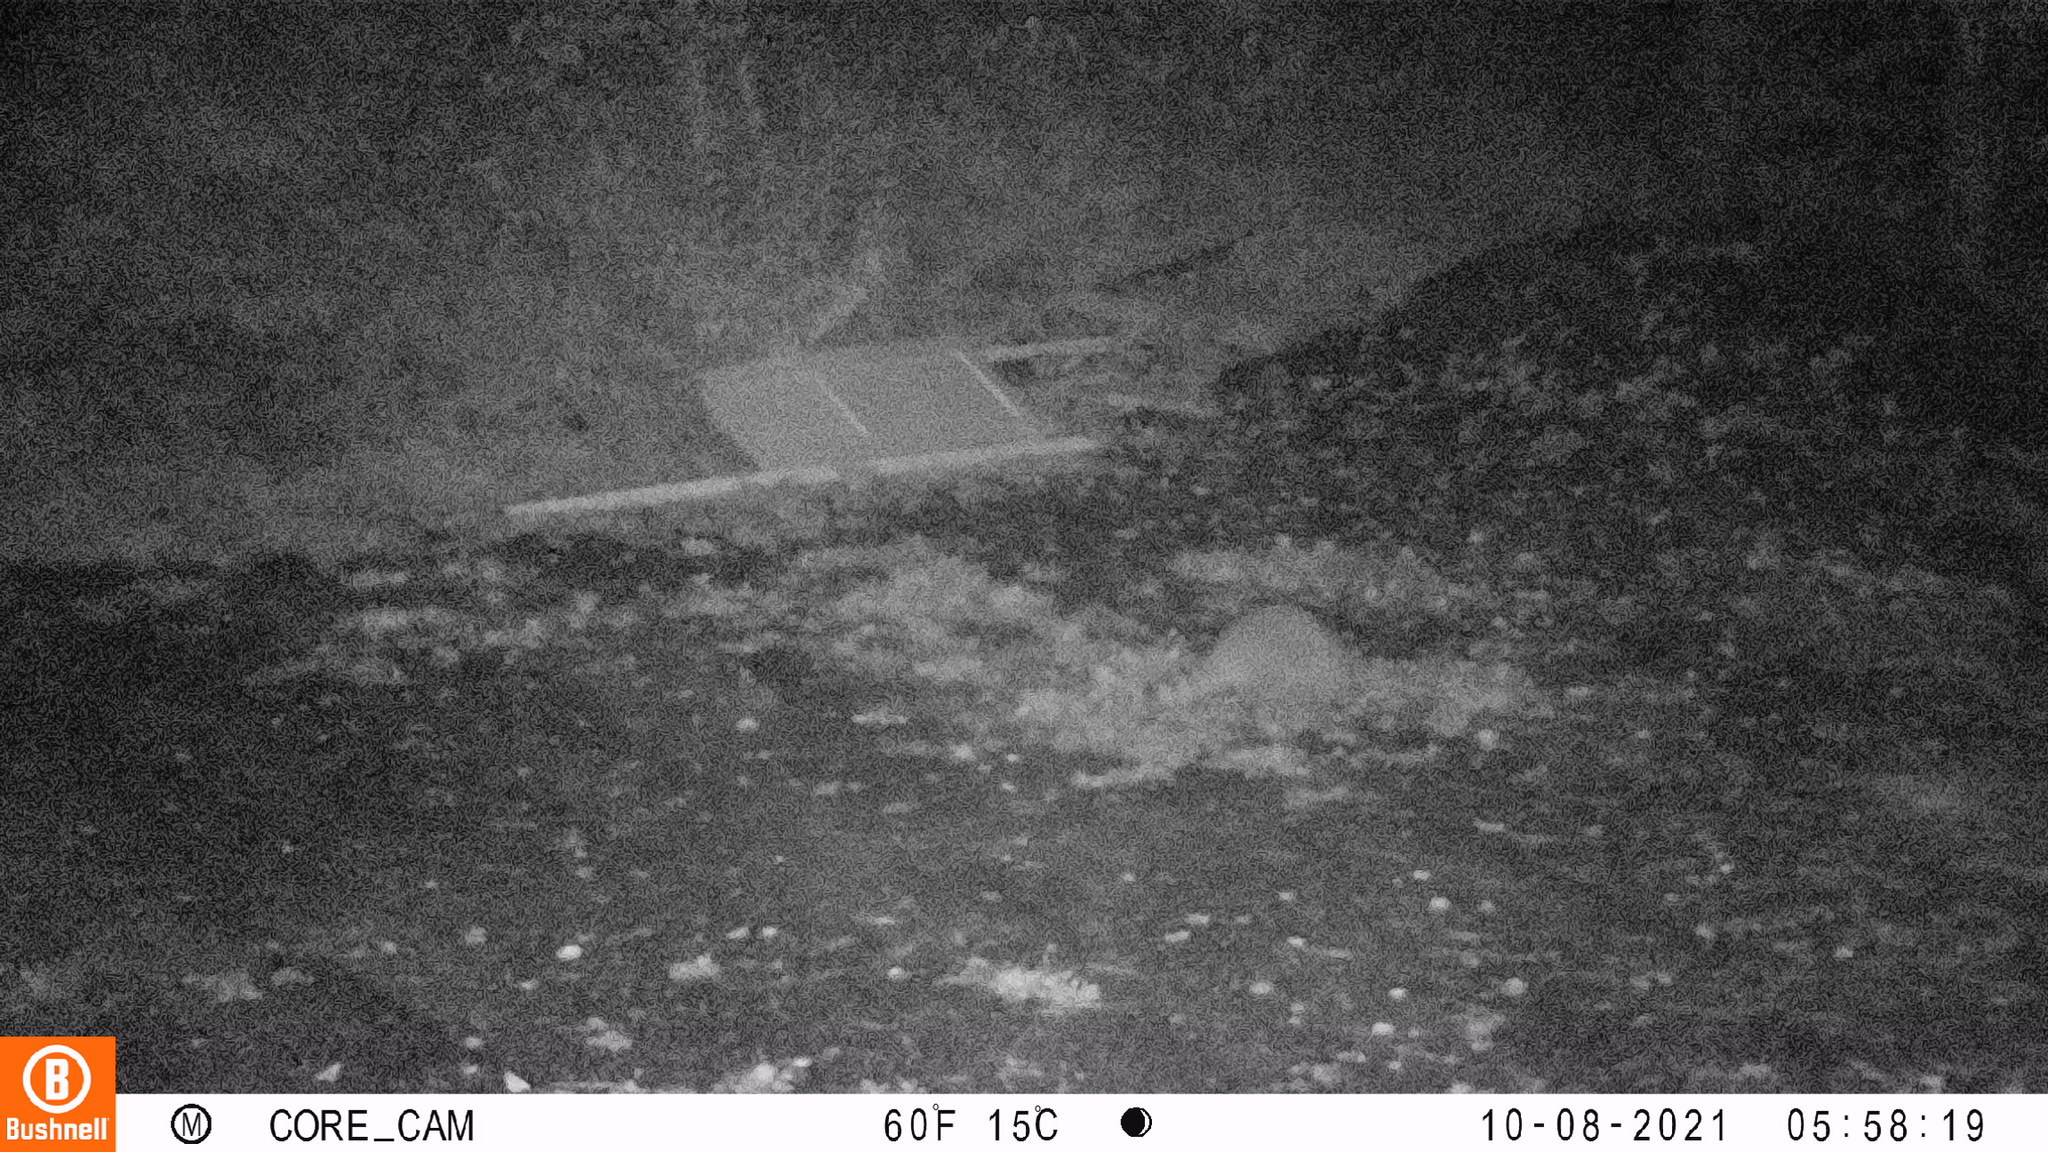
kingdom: Animalia
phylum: Chordata
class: Mammalia
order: Carnivora
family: Procyonidae
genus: Procyon
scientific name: Procyon lotor
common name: Raccoon
